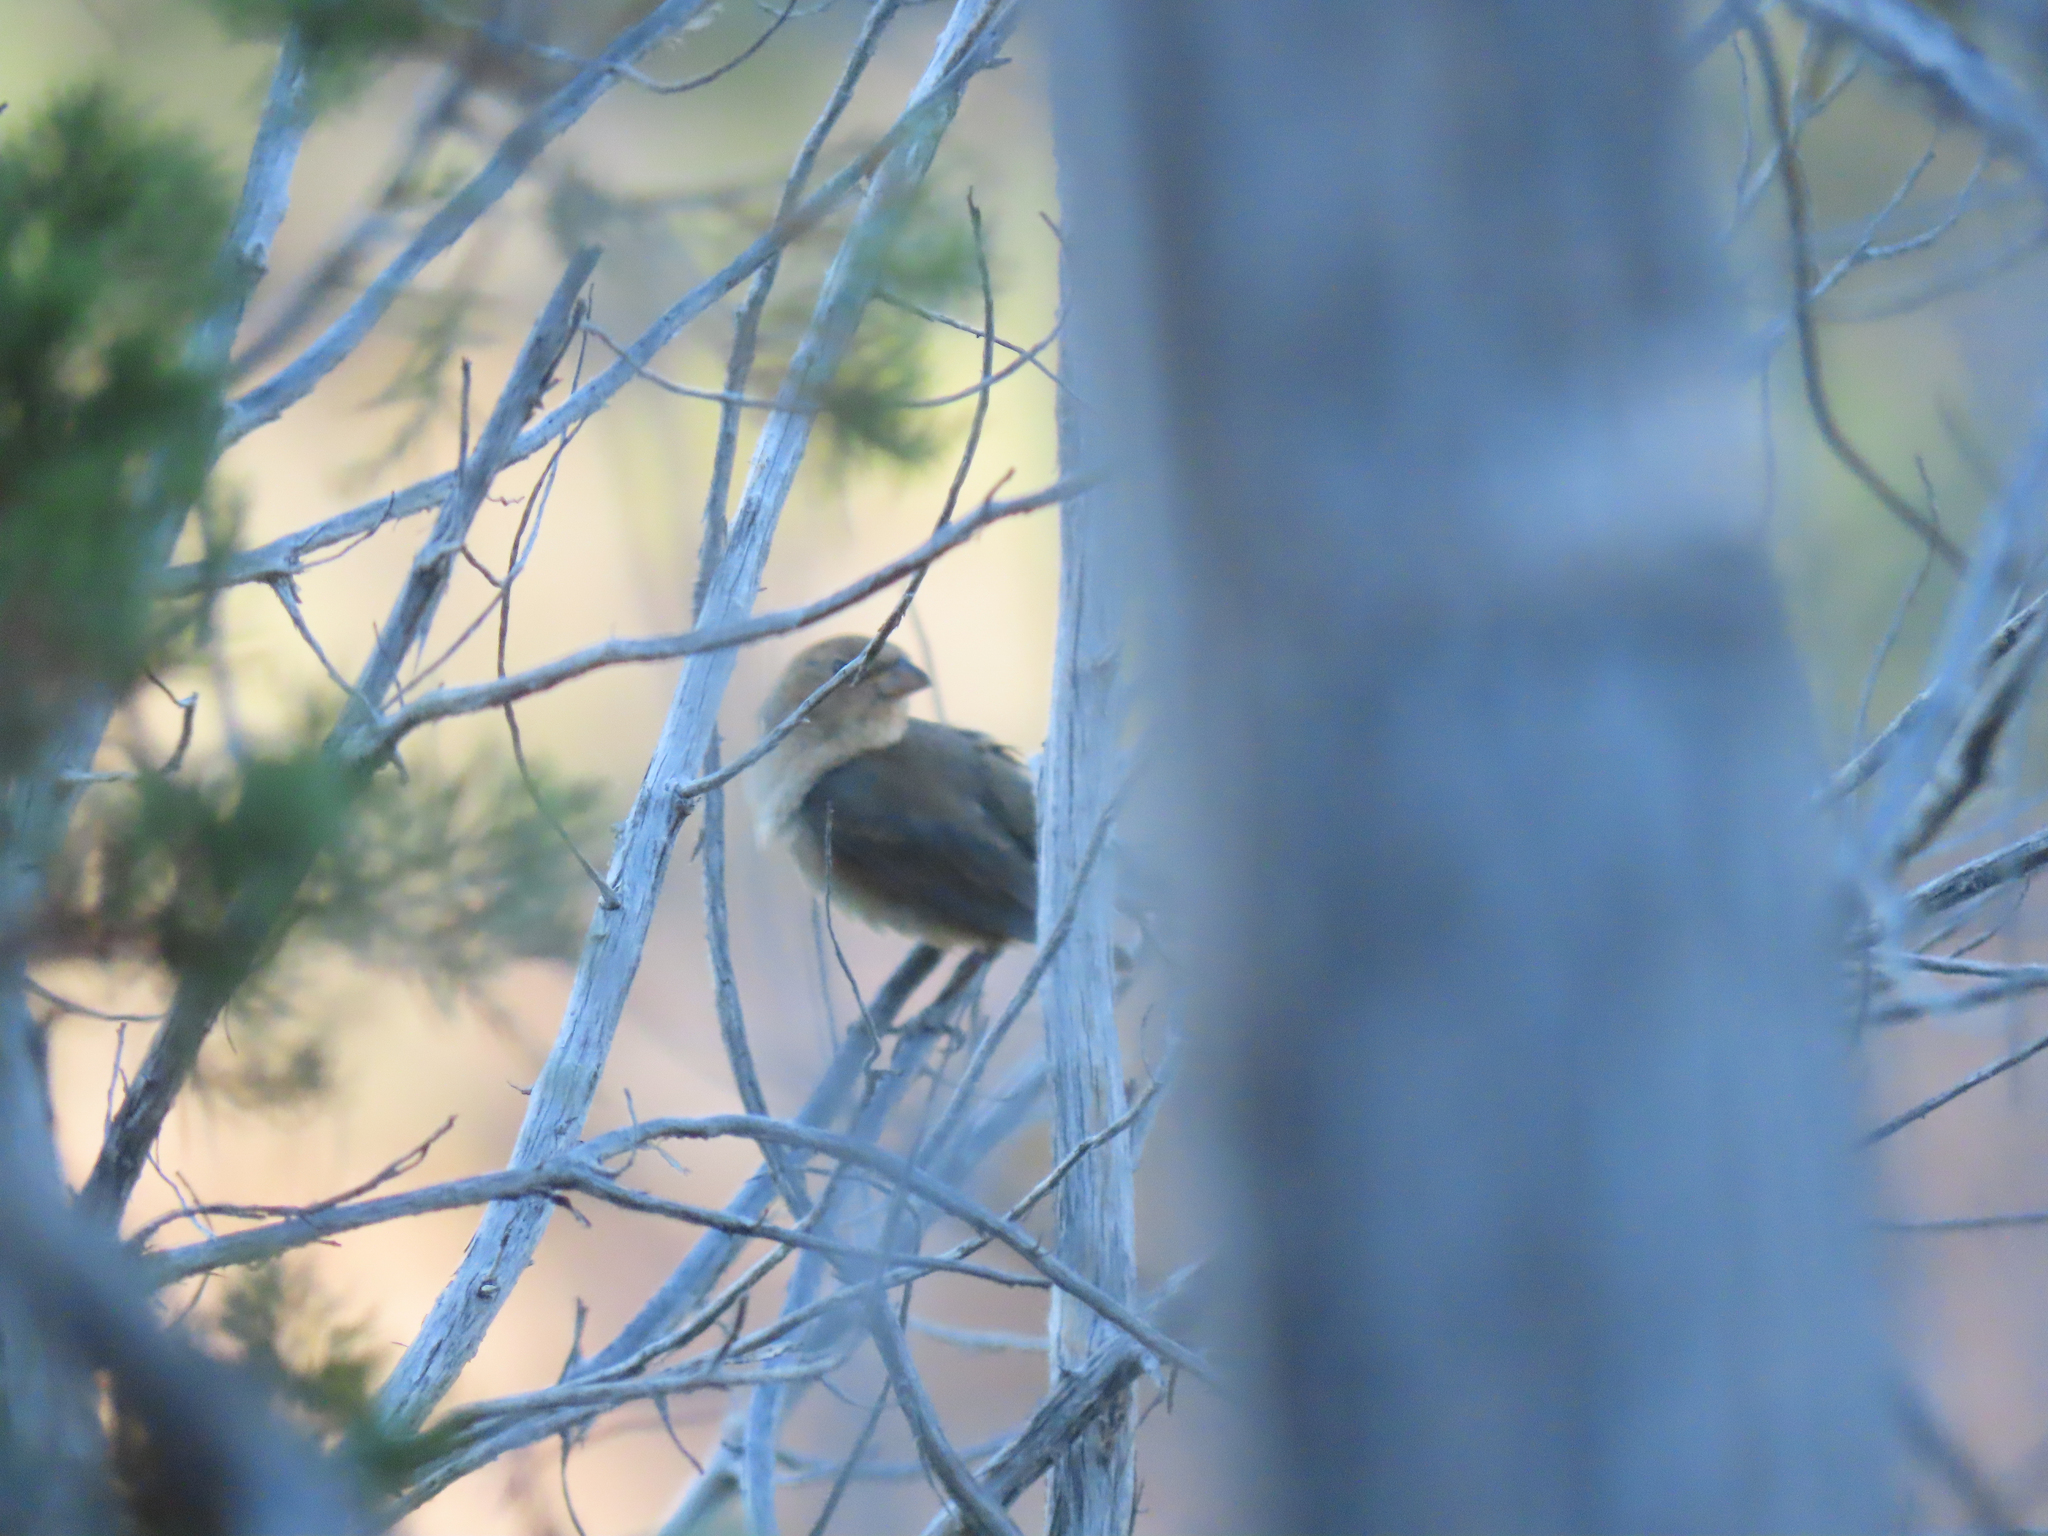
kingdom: Animalia
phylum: Chordata
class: Aves
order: Passeriformes
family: Cardinalidae
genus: Passerina
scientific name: Passerina versicolor
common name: Varied bunting
